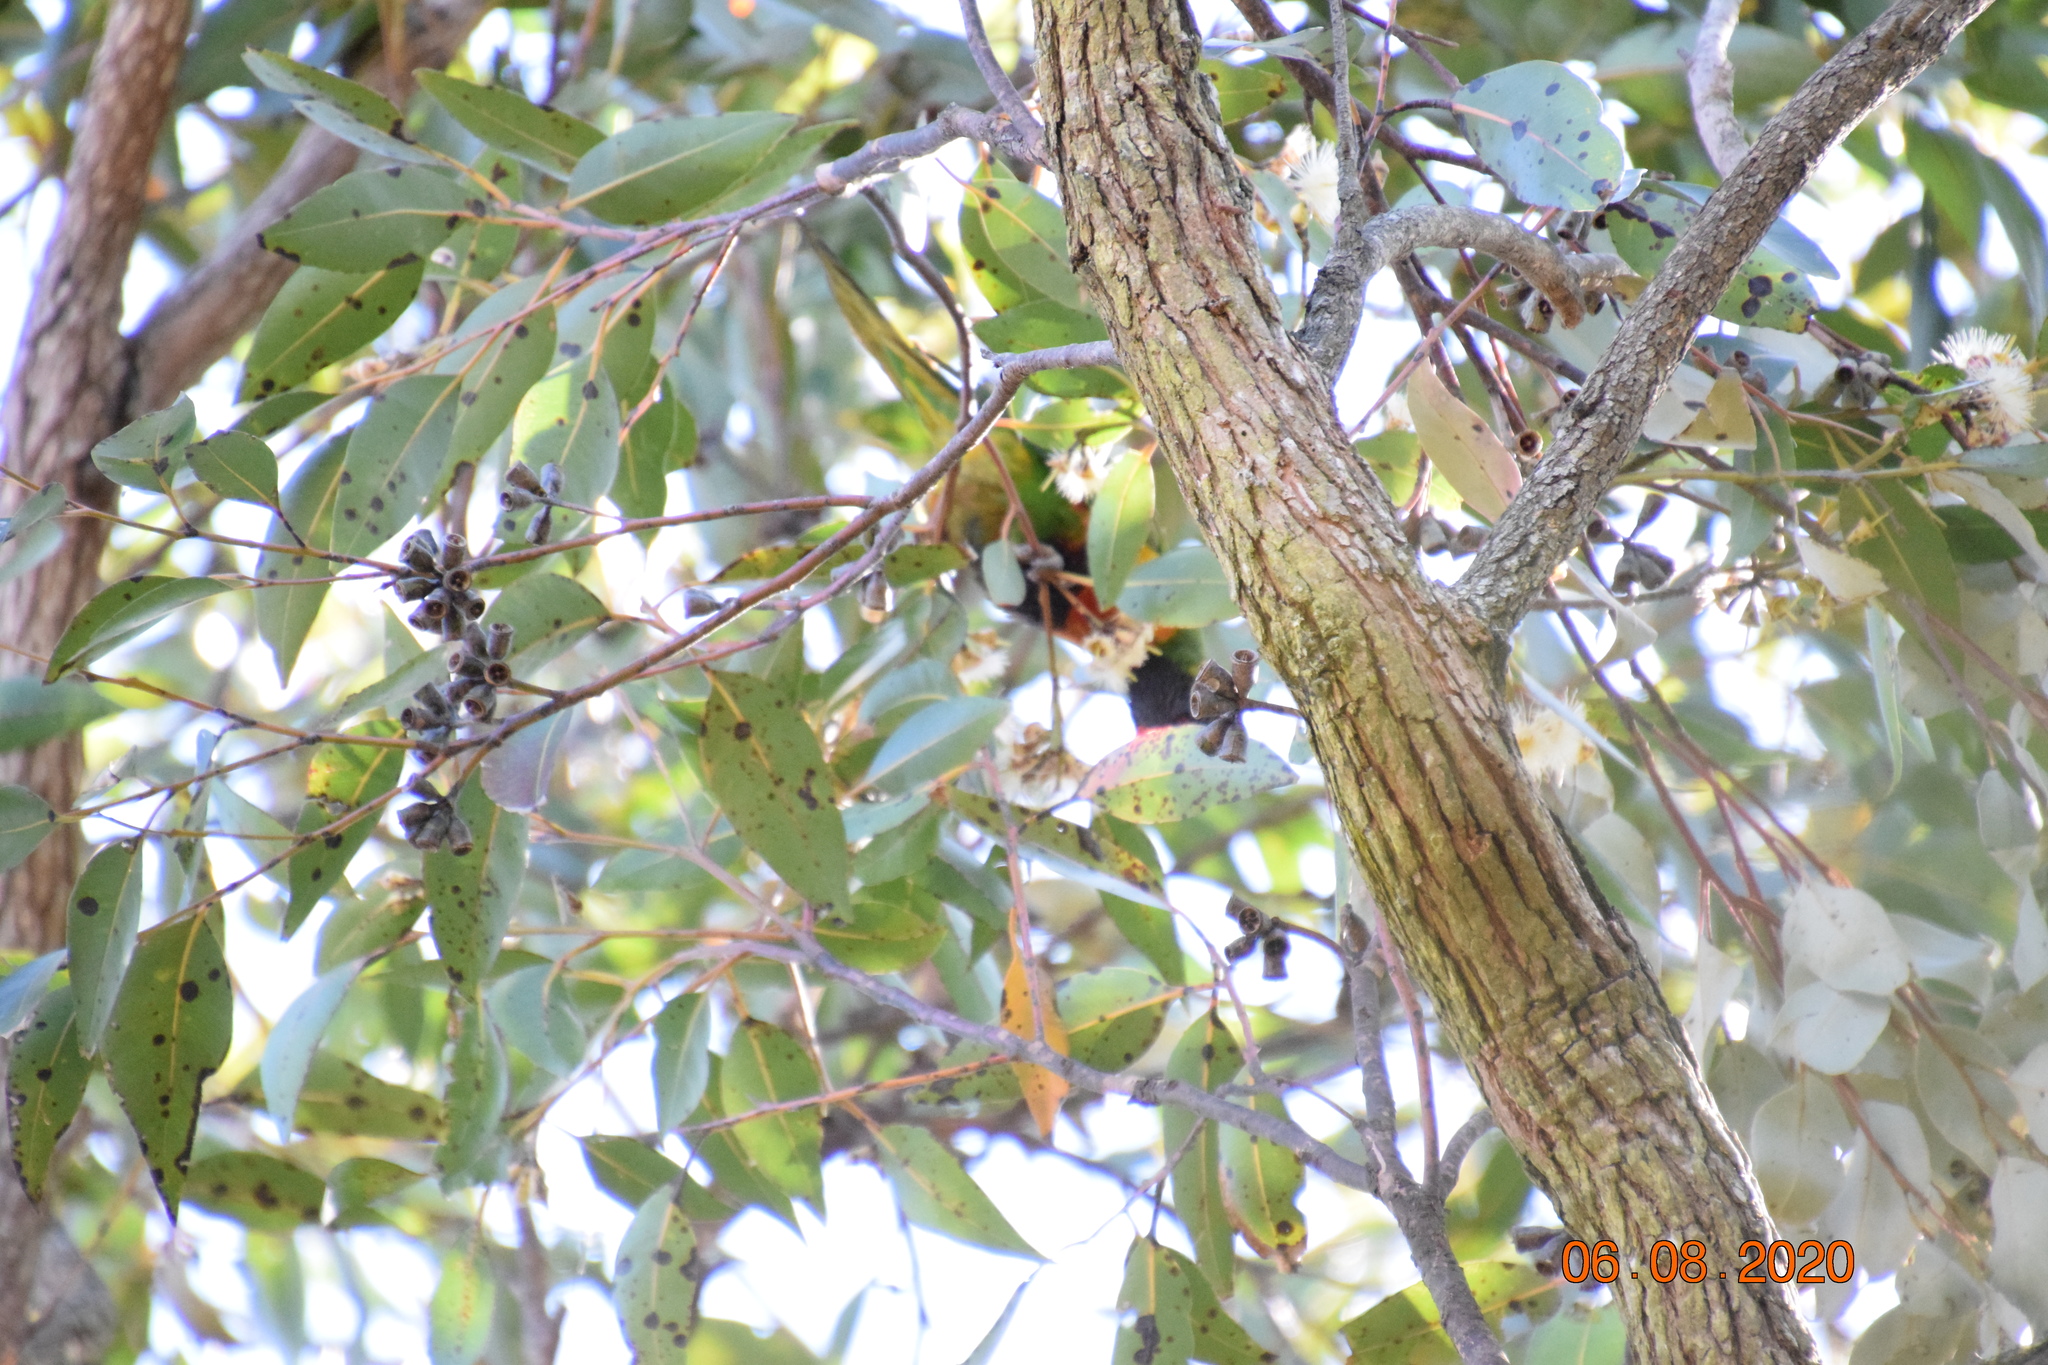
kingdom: Animalia
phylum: Chordata
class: Aves
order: Psittaciformes
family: Psittacidae
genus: Trichoglossus
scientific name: Trichoglossus haematodus
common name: Coconut lorikeet
